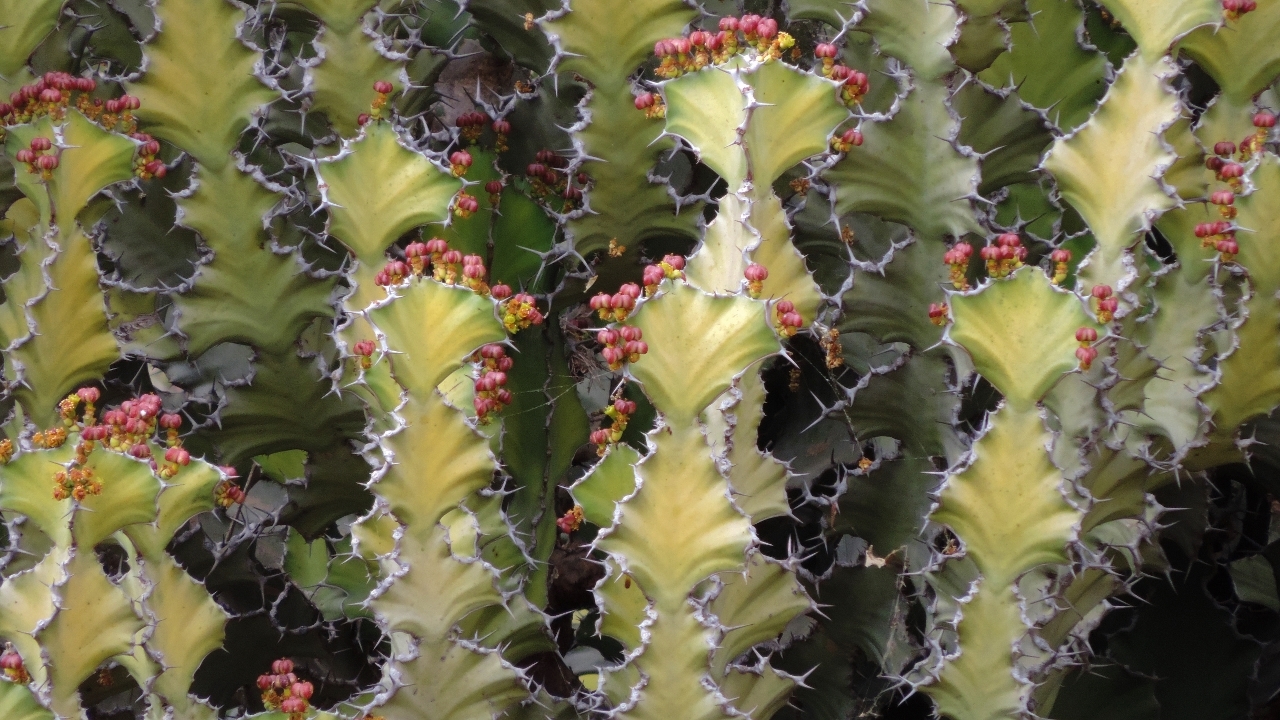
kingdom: Plantae
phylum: Tracheophyta
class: Magnoliopsida
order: Malpighiales
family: Euphorbiaceae
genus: Euphorbia
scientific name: Euphorbia cooperi
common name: Candelabra tree
